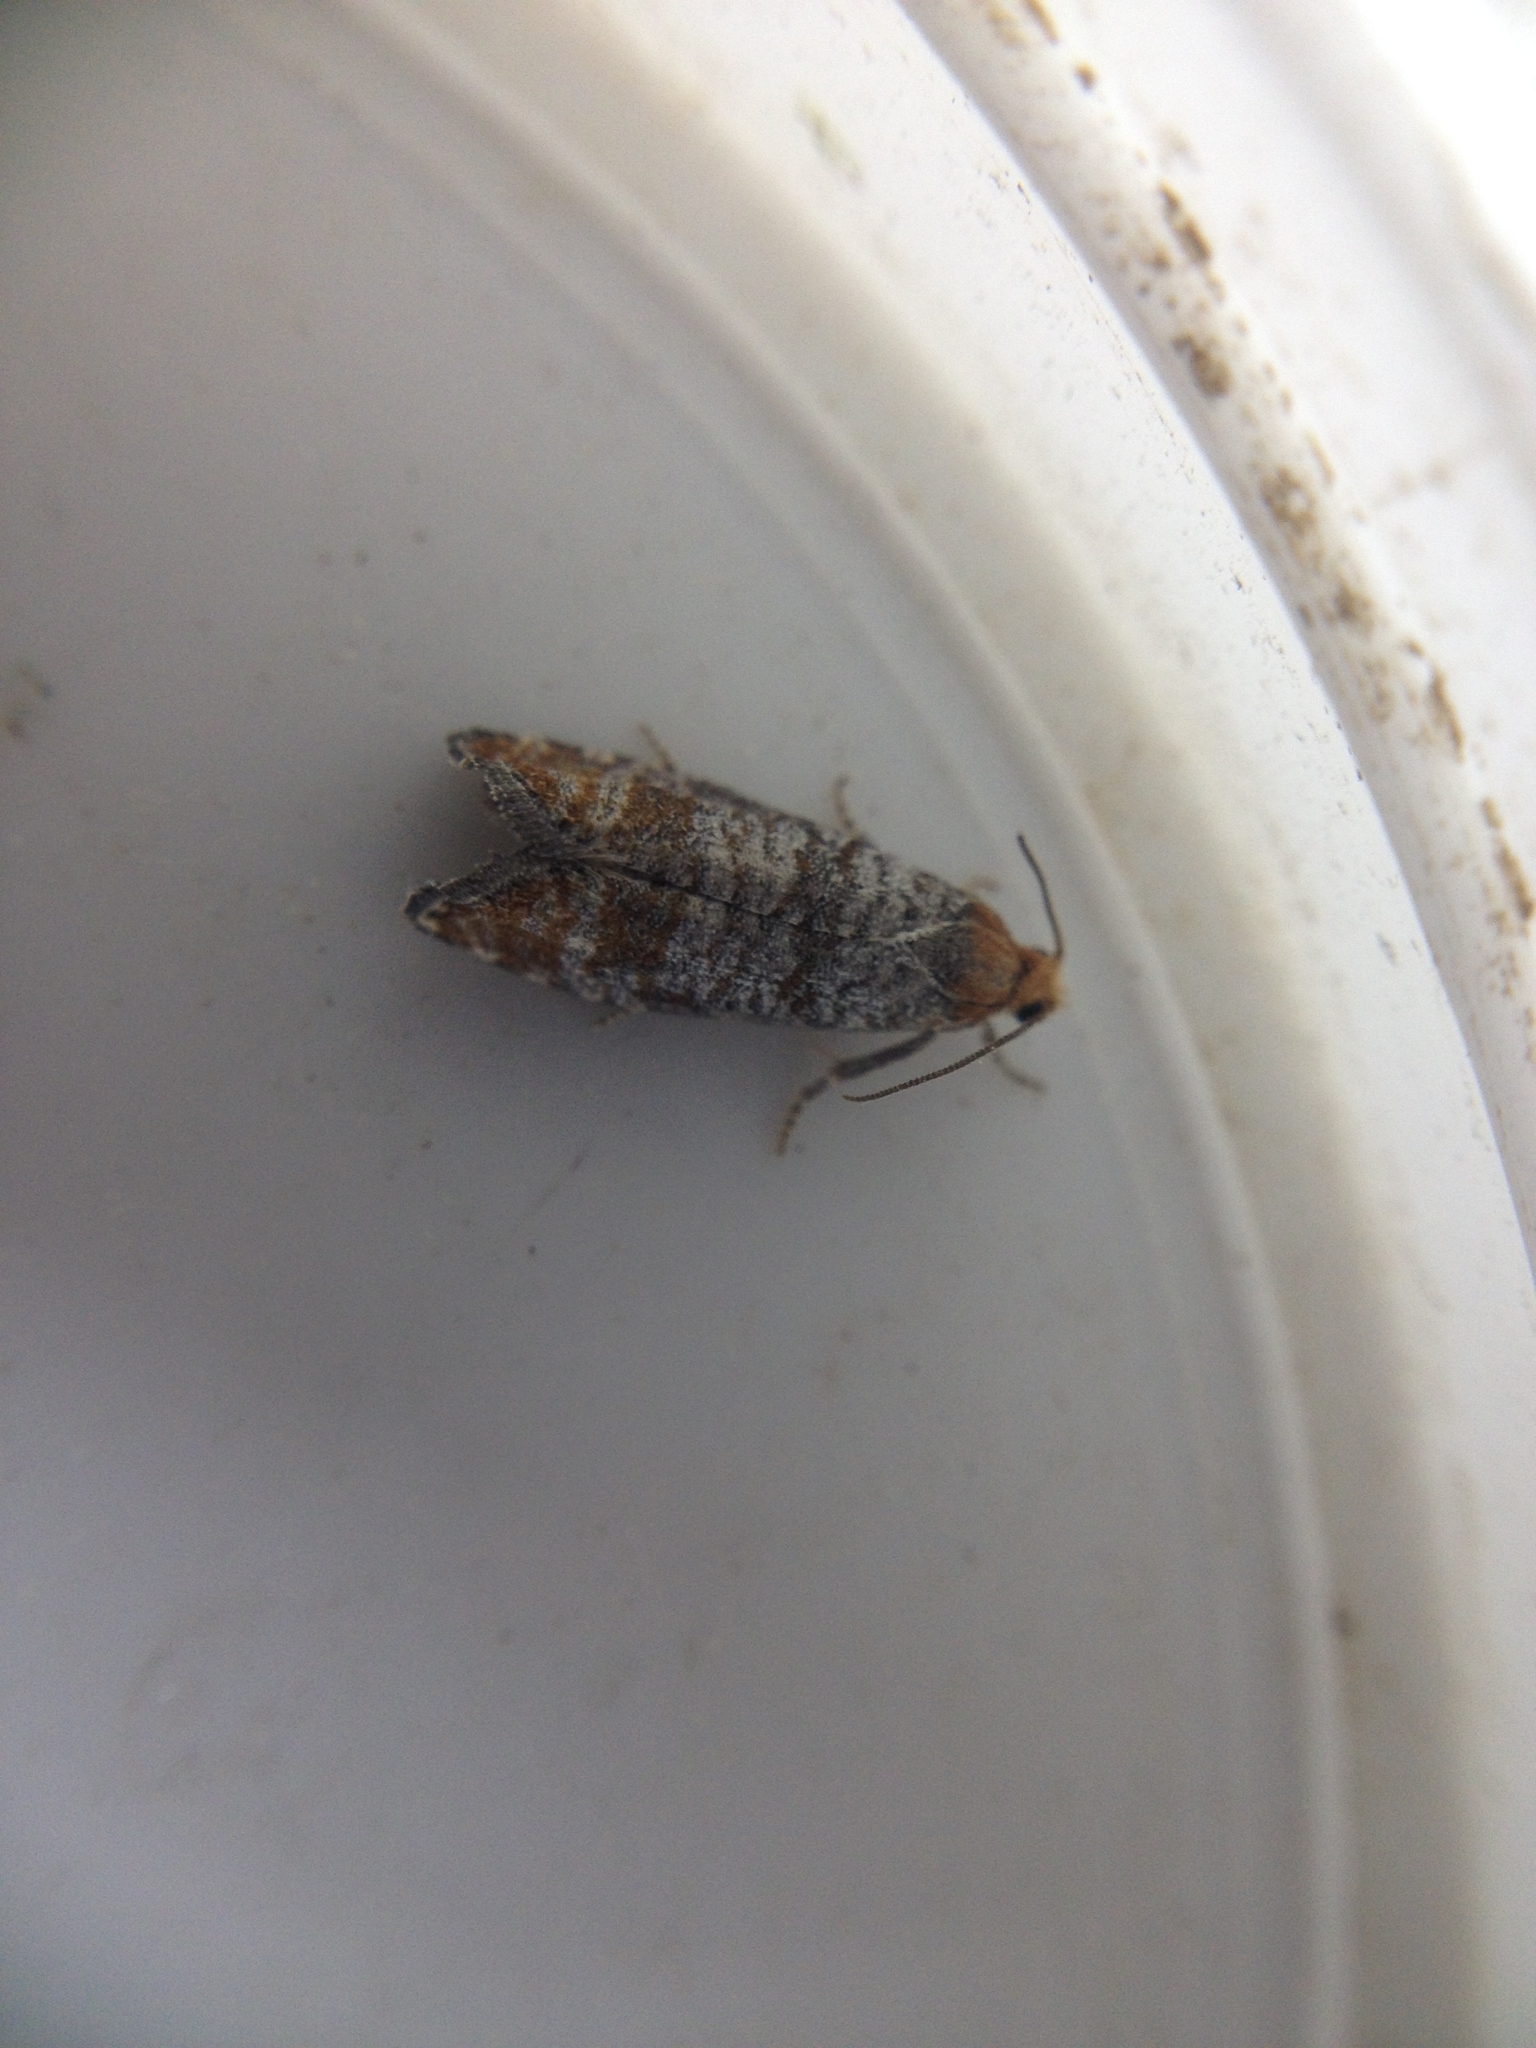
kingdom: Animalia
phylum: Arthropoda
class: Insecta
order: Lepidoptera
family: Tortricidae
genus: Blastesthia
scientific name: Blastesthia posticana
